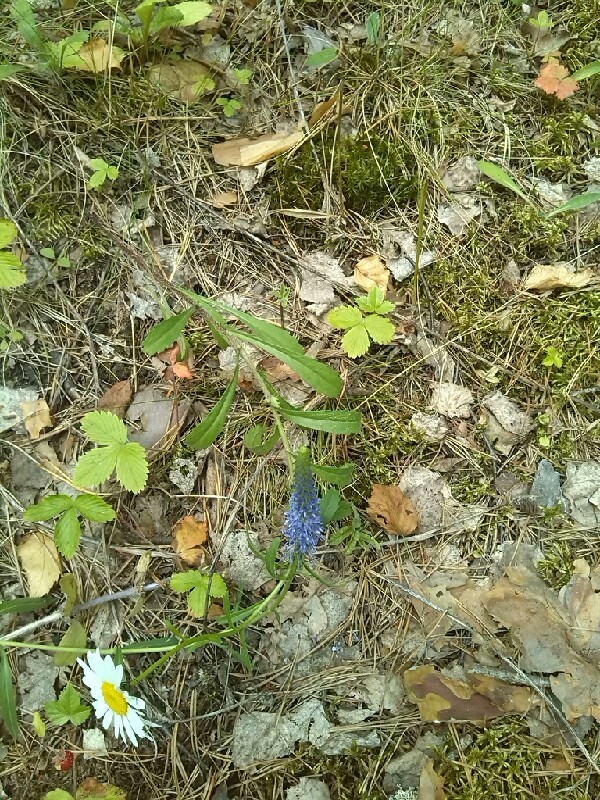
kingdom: Plantae
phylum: Tracheophyta
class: Magnoliopsida
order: Lamiales
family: Plantaginaceae
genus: Veronica
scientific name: Veronica spicata
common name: Spiked speedwell
